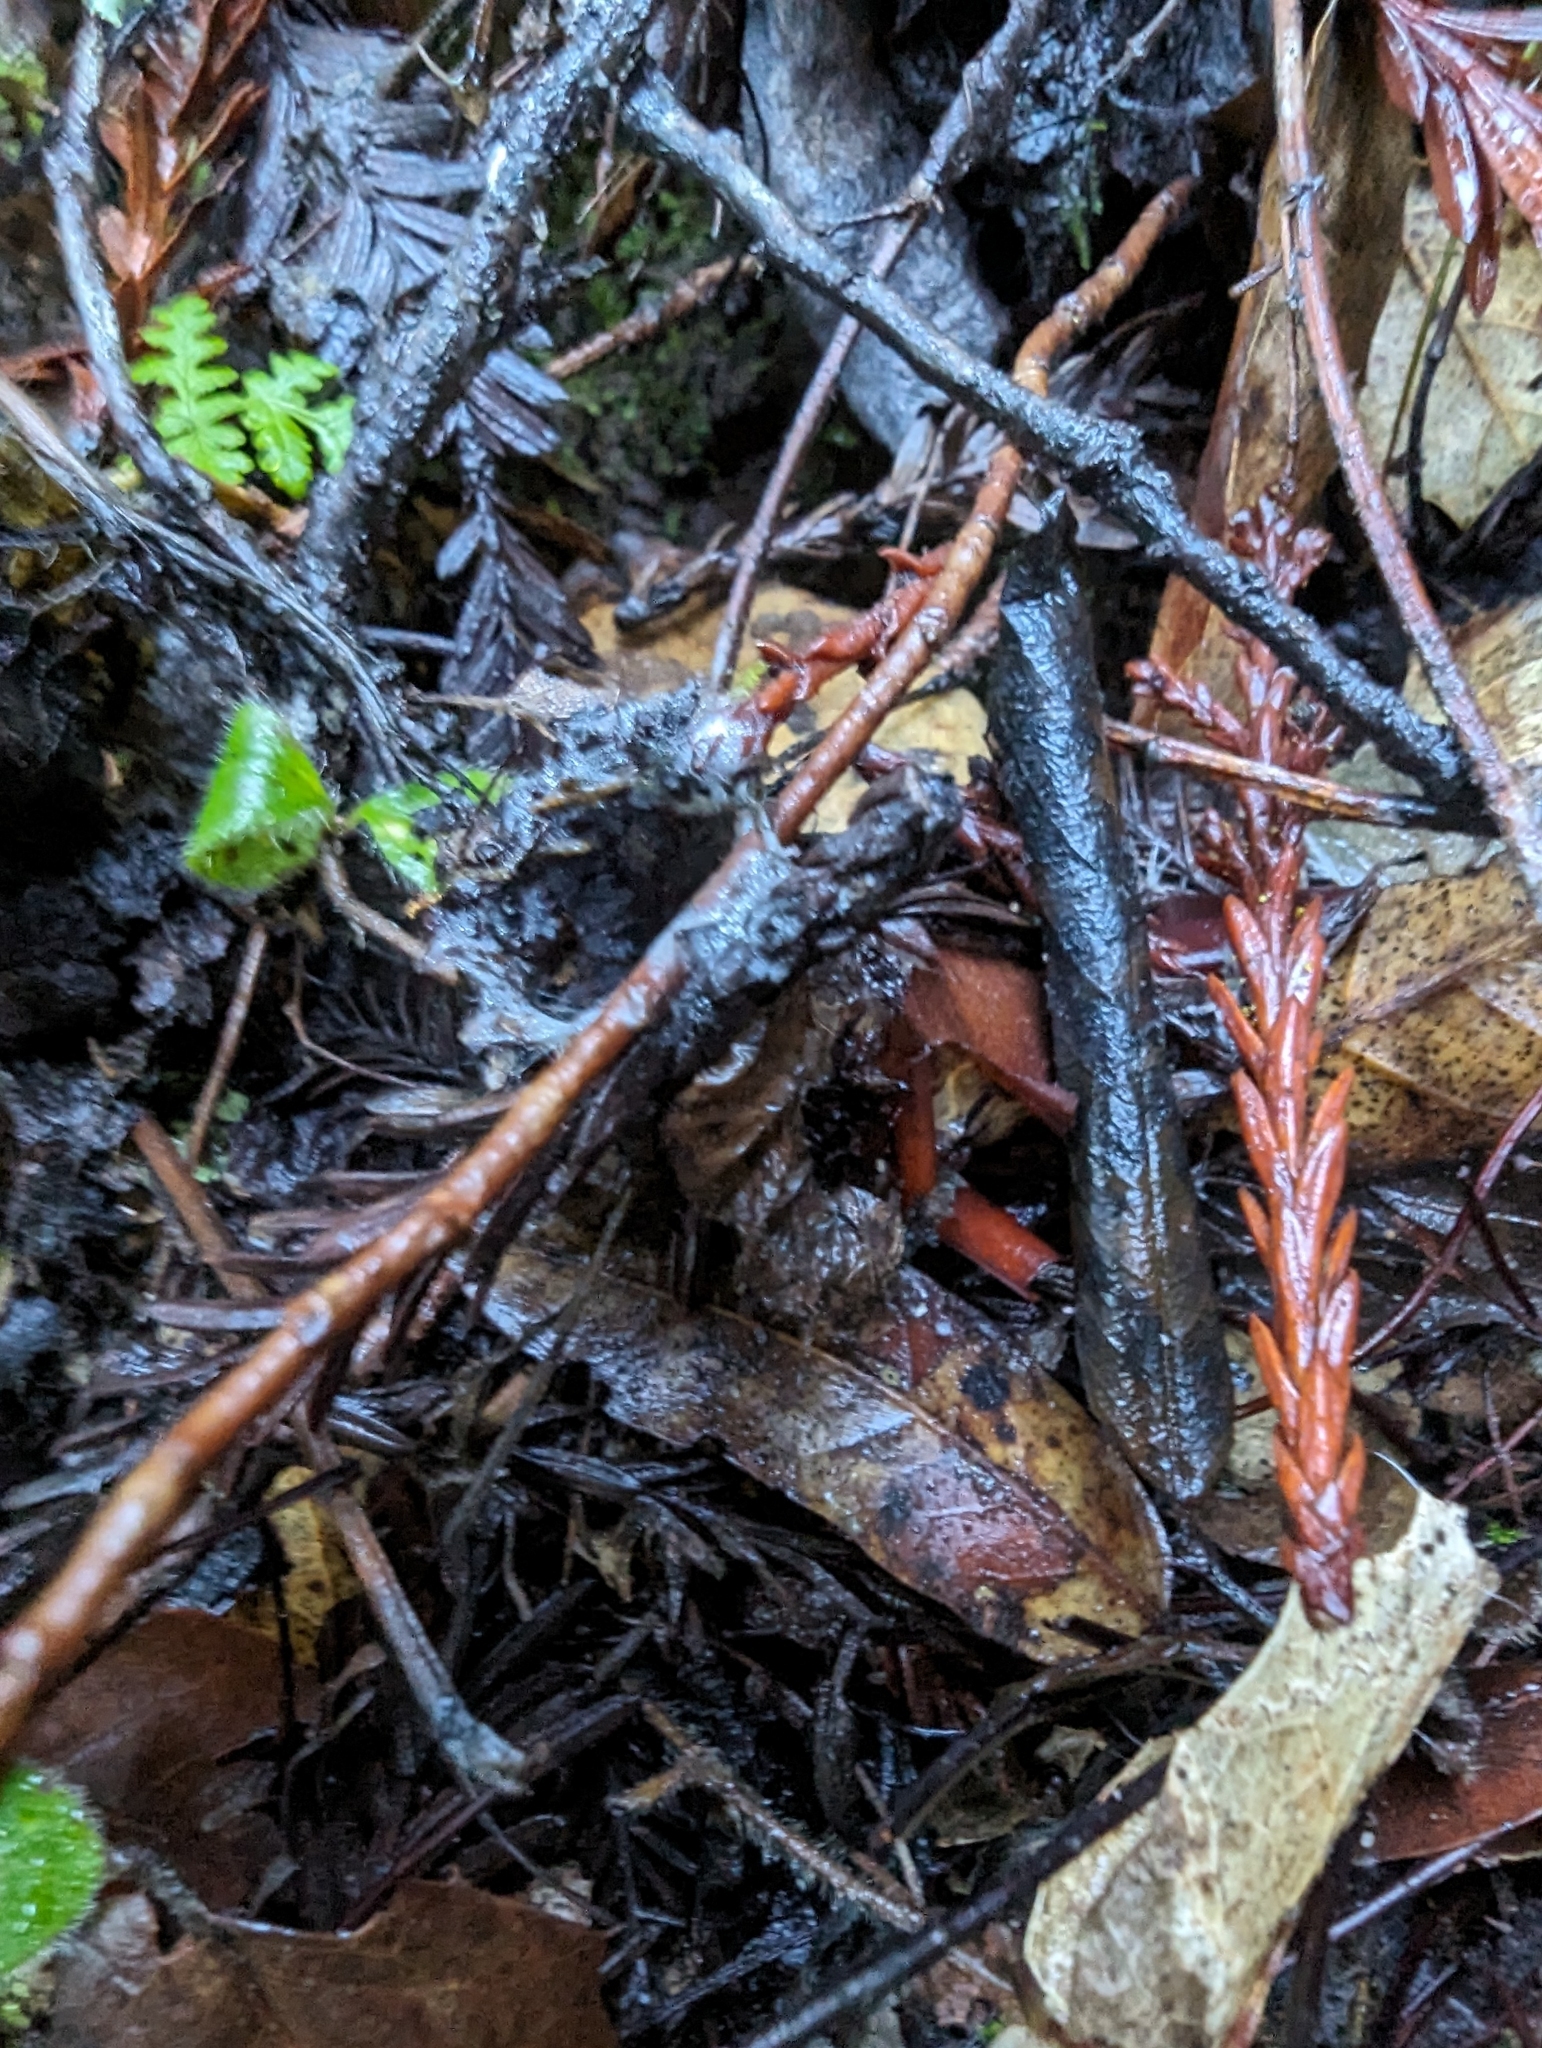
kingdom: Animalia
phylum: Arthropoda
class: Arachnida
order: Araneae
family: Antrodiaetidae
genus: Atypoides
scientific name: Atypoides riversi
